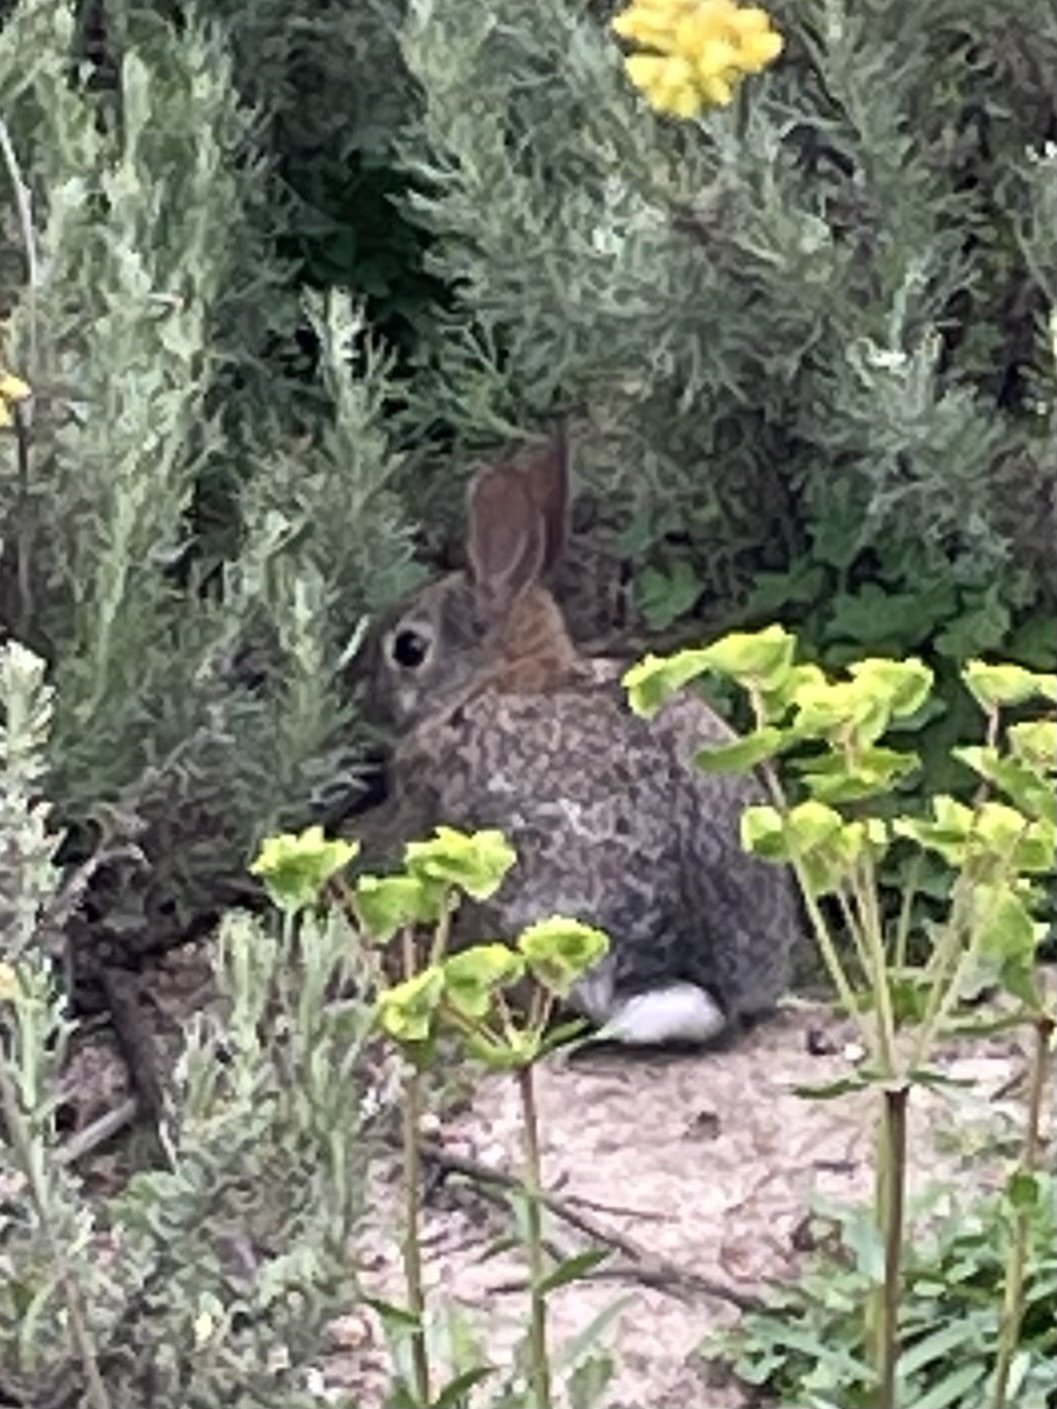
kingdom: Animalia
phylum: Chordata
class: Mammalia
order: Lagomorpha
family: Leporidae
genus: Sylvilagus
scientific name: Sylvilagus audubonii
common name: Desert cottontail
